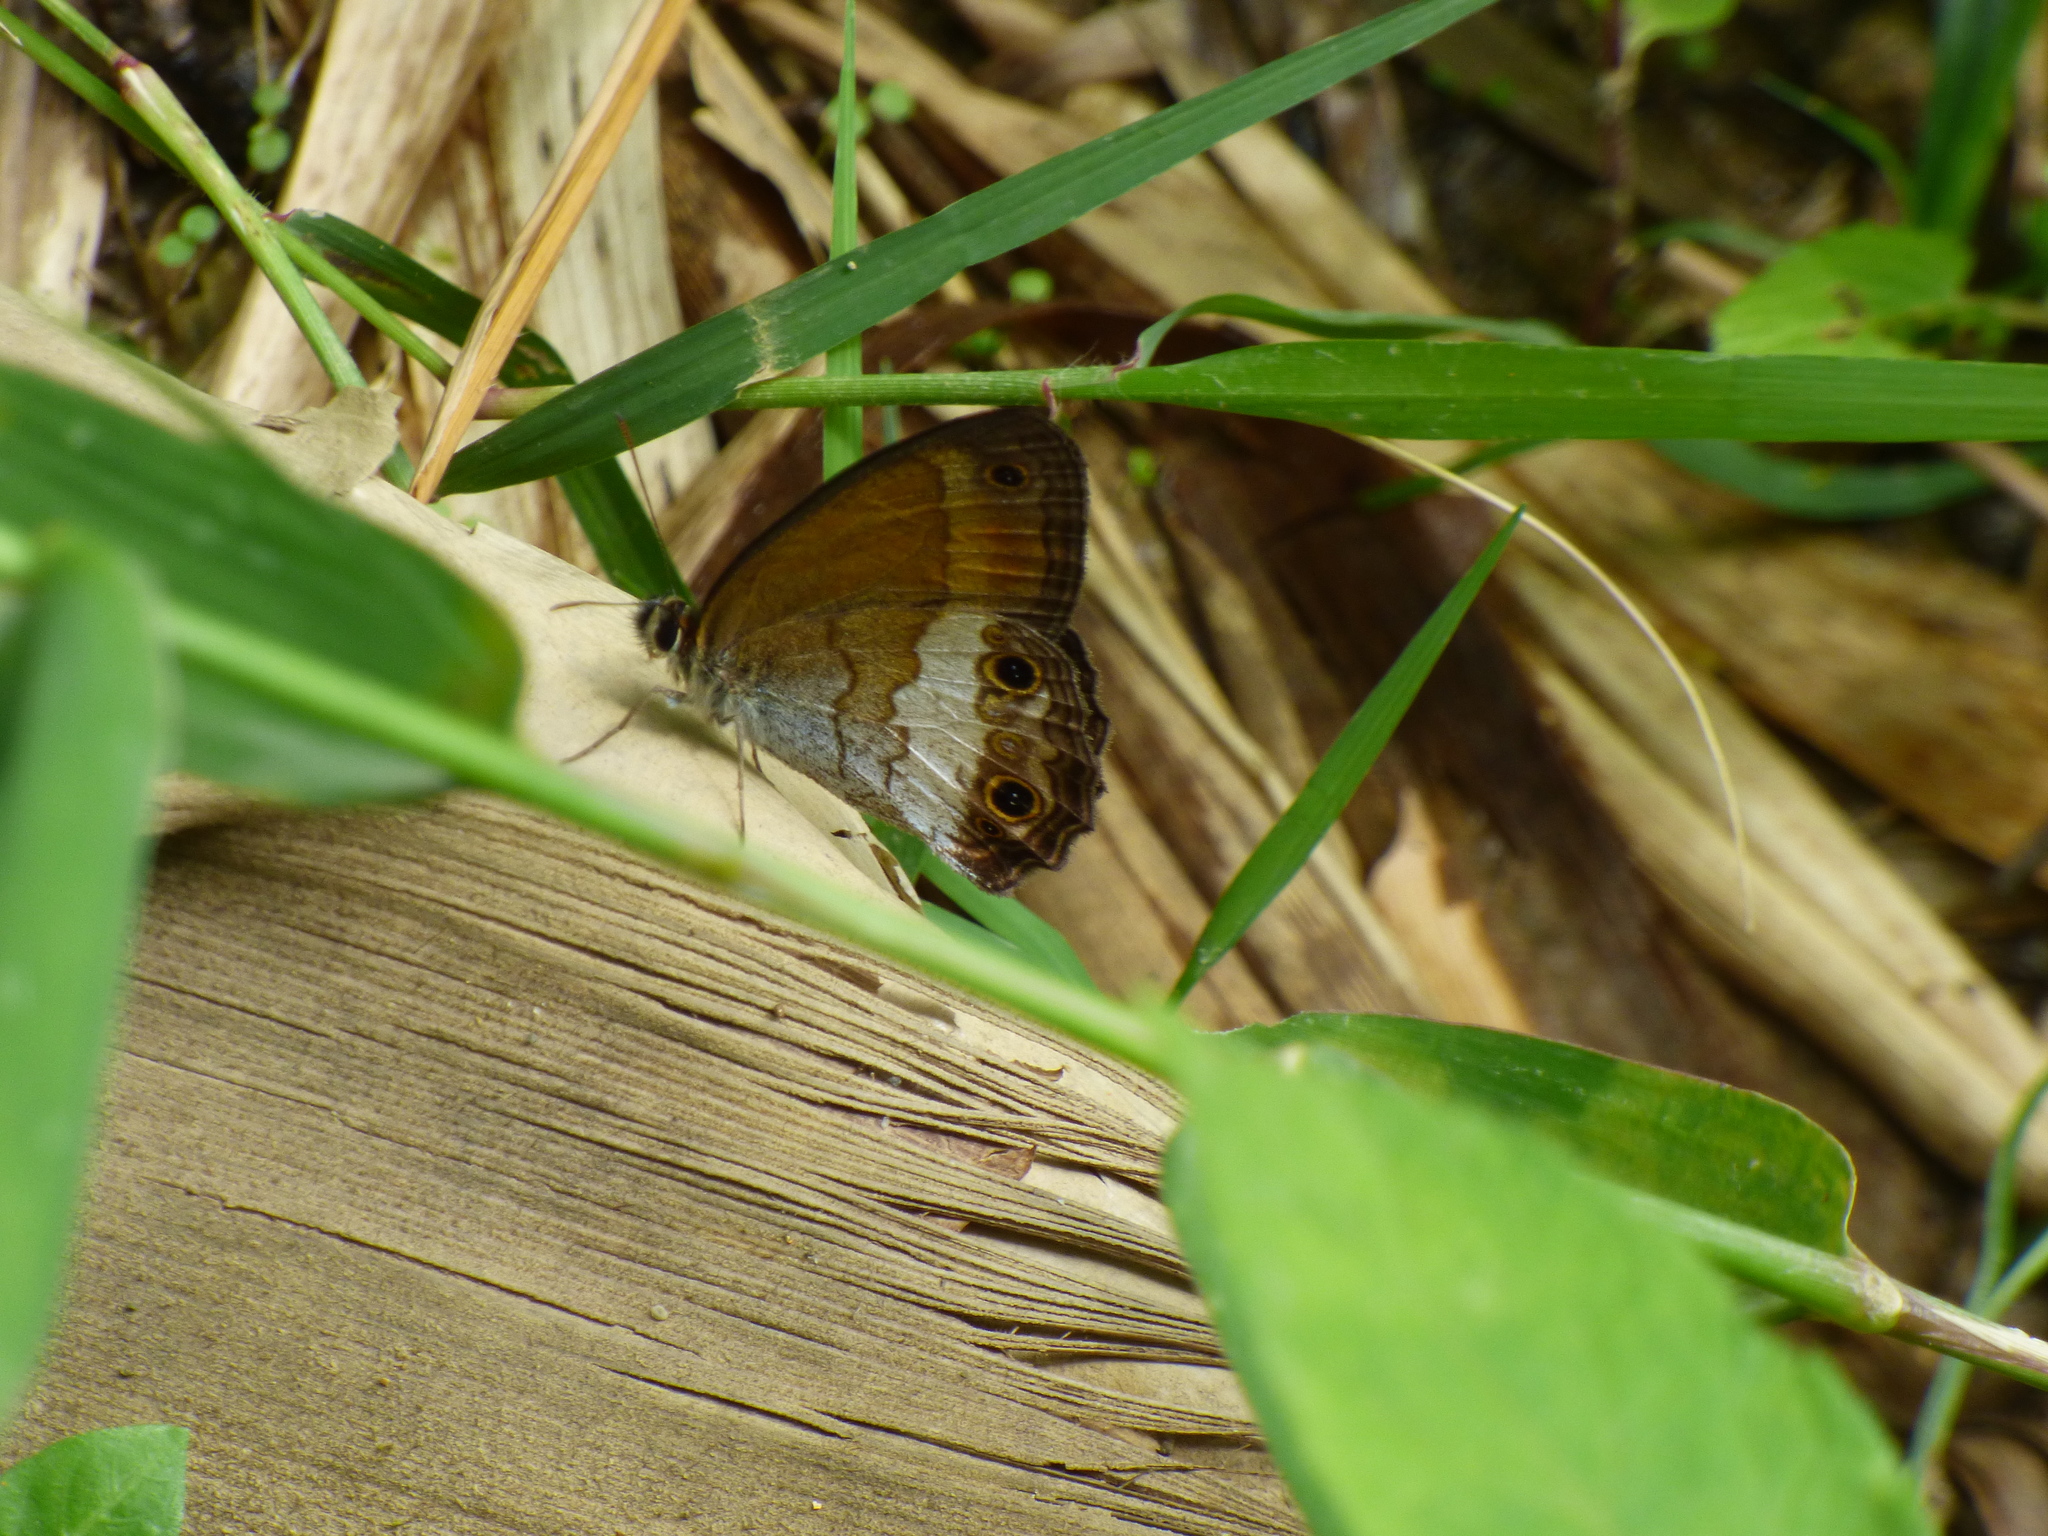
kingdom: Animalia
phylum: Arthropoda
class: Insecta
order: Lepidoptera
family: Nymphalidae
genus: Graphita
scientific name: Graphita griphe
